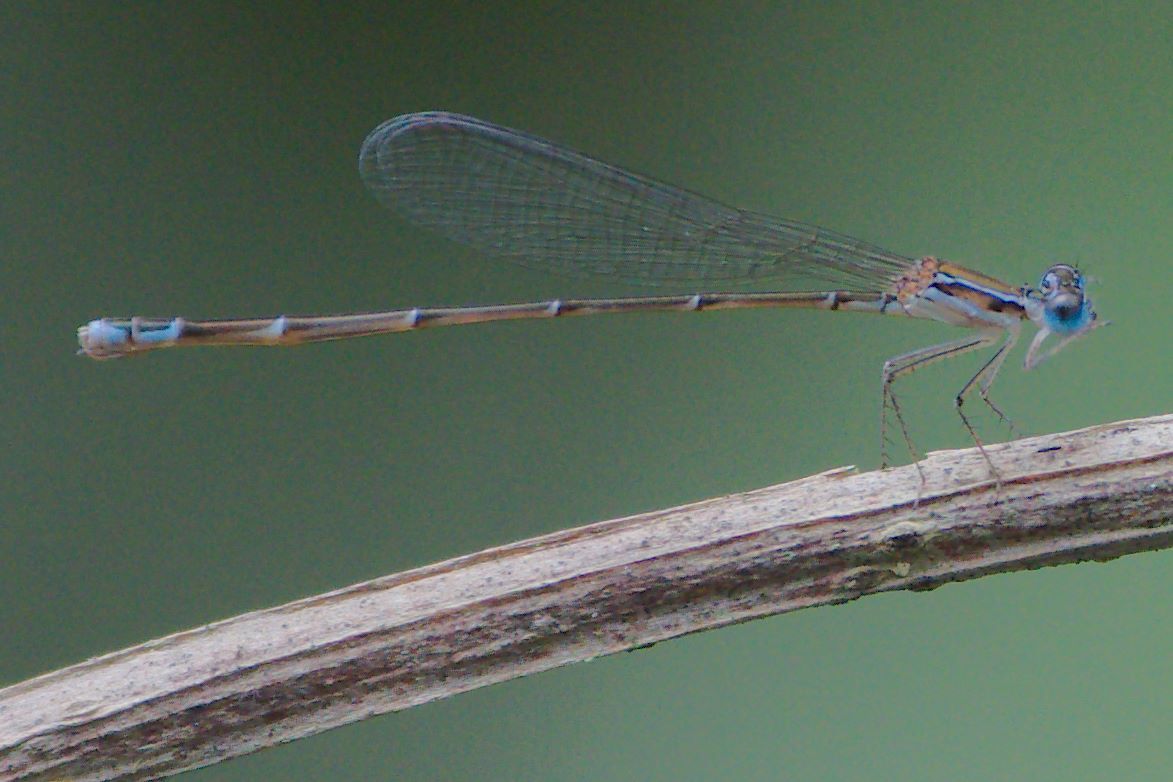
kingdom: Animalia
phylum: Arthropoda
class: Insecta
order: Odonata
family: Coenagrionidae
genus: Nehalennia
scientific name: Nehalennia pallidula
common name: Everglades sprite
